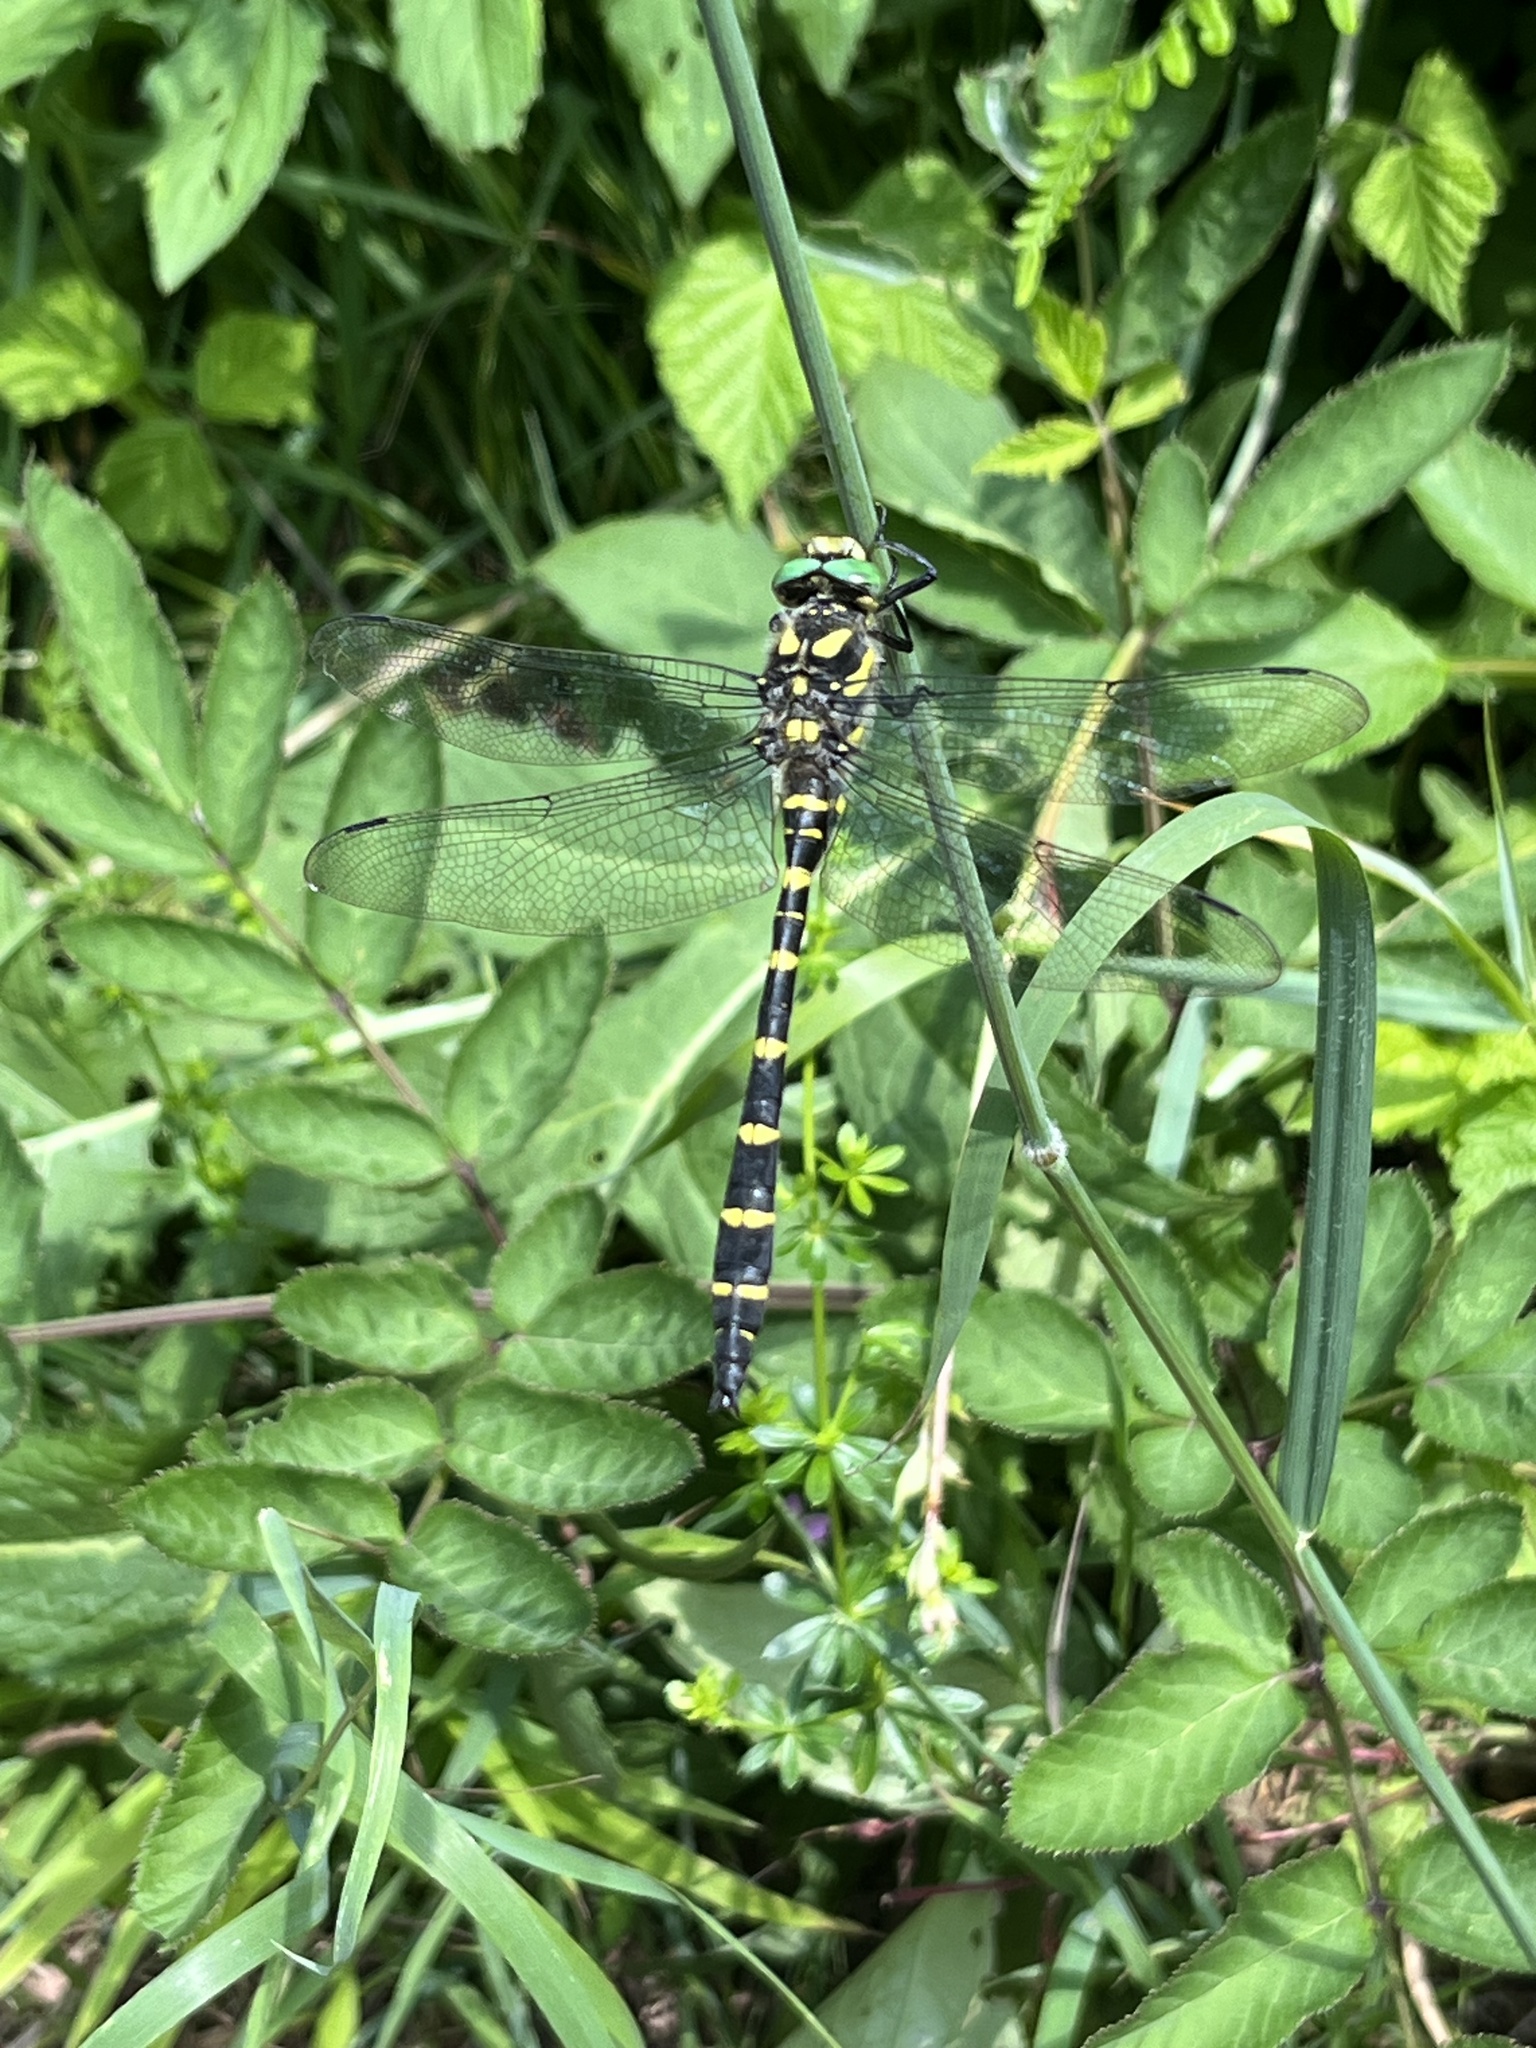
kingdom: Animalia
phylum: Arthropoda
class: Insecta
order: Odonata
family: Cordulegastridae
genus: Cordulegaster
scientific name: Cordulegaster bidentata
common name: Sombre goldenring
